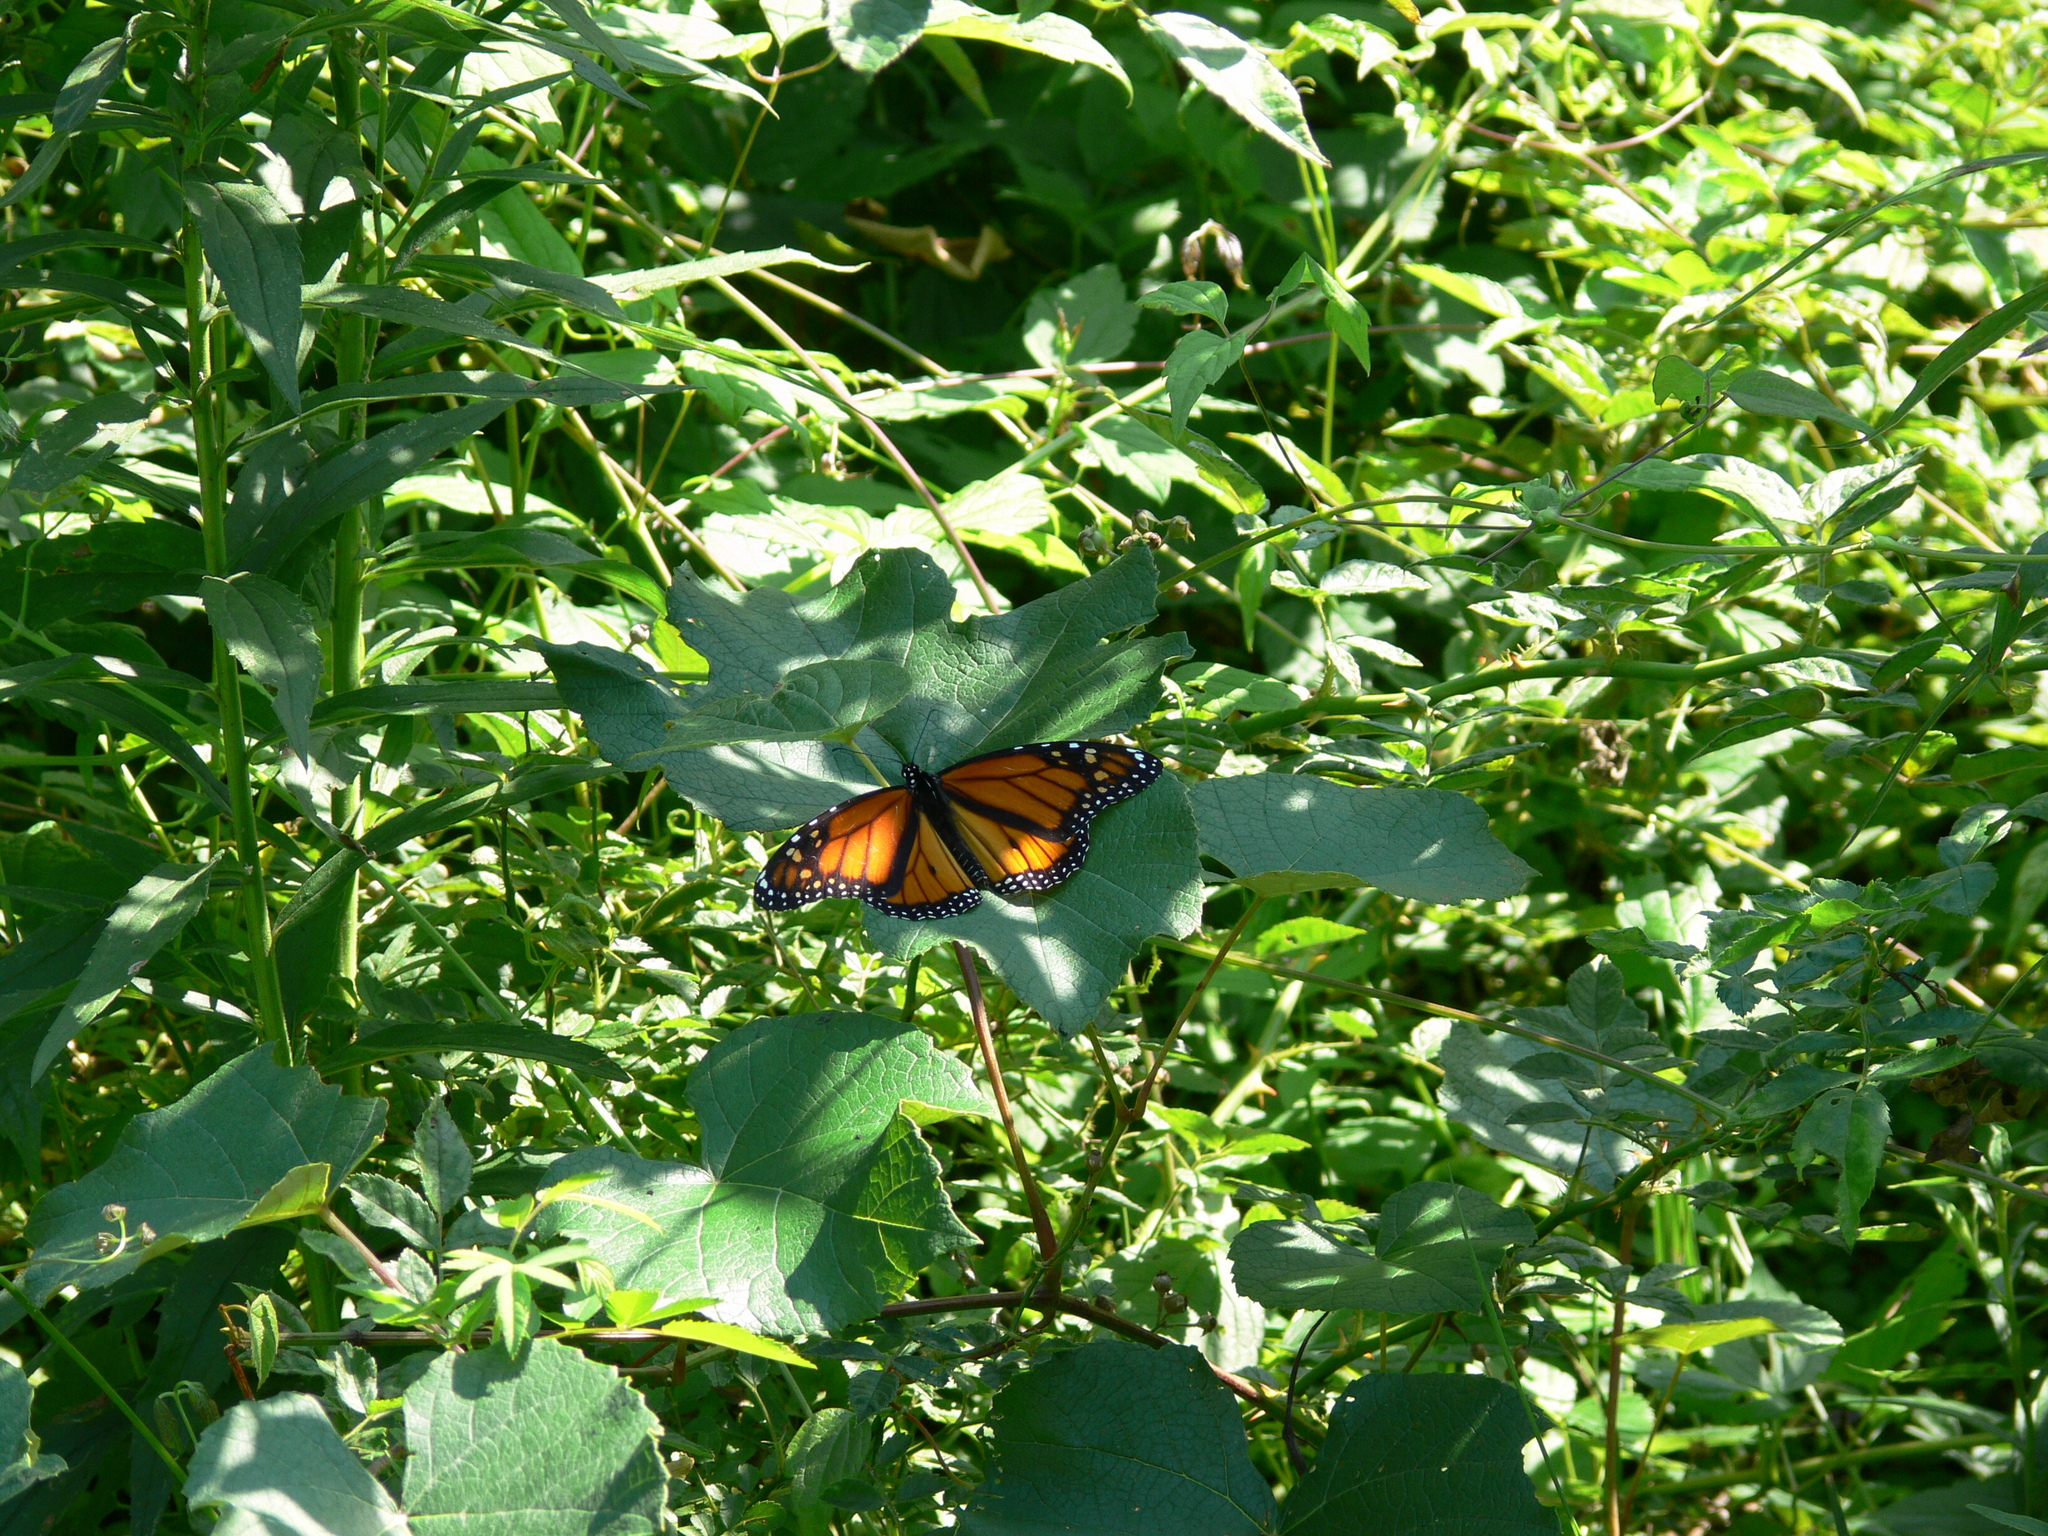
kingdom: Animalia
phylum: Arthropoda
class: Insecta
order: Lepidoptera
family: Nymphalidae
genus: Danaus
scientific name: Danaus plexippus
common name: Monarch
